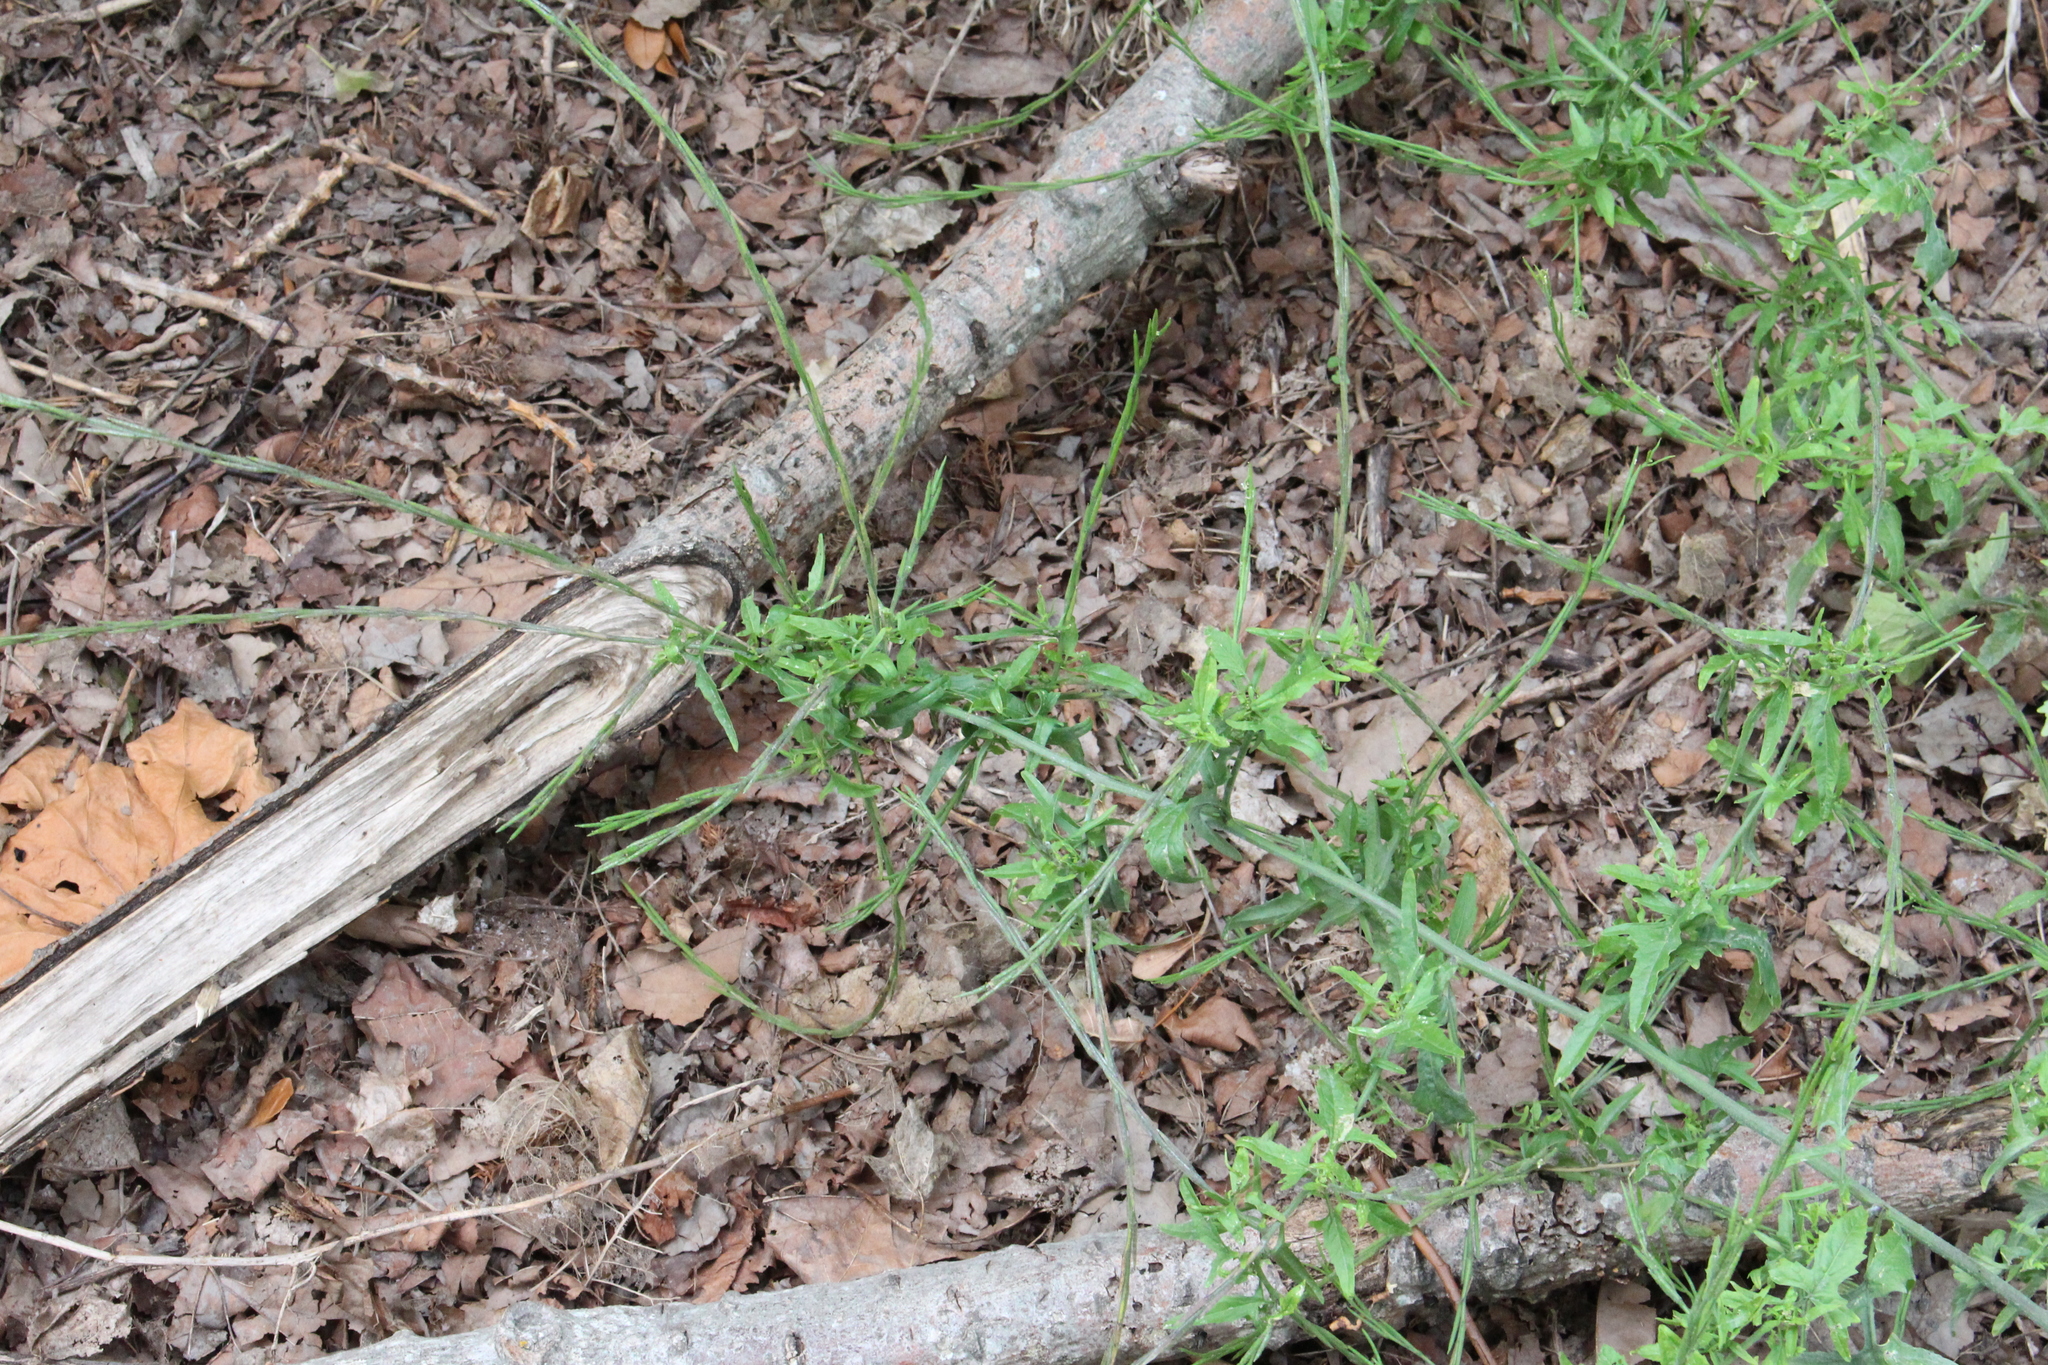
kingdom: Plantae
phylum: Tracheophyta
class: Magnoliopsida
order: Brassicales
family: Brassicaceae
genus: Sisymbrium
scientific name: Sisymbrium officinale
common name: Hedge mustard
